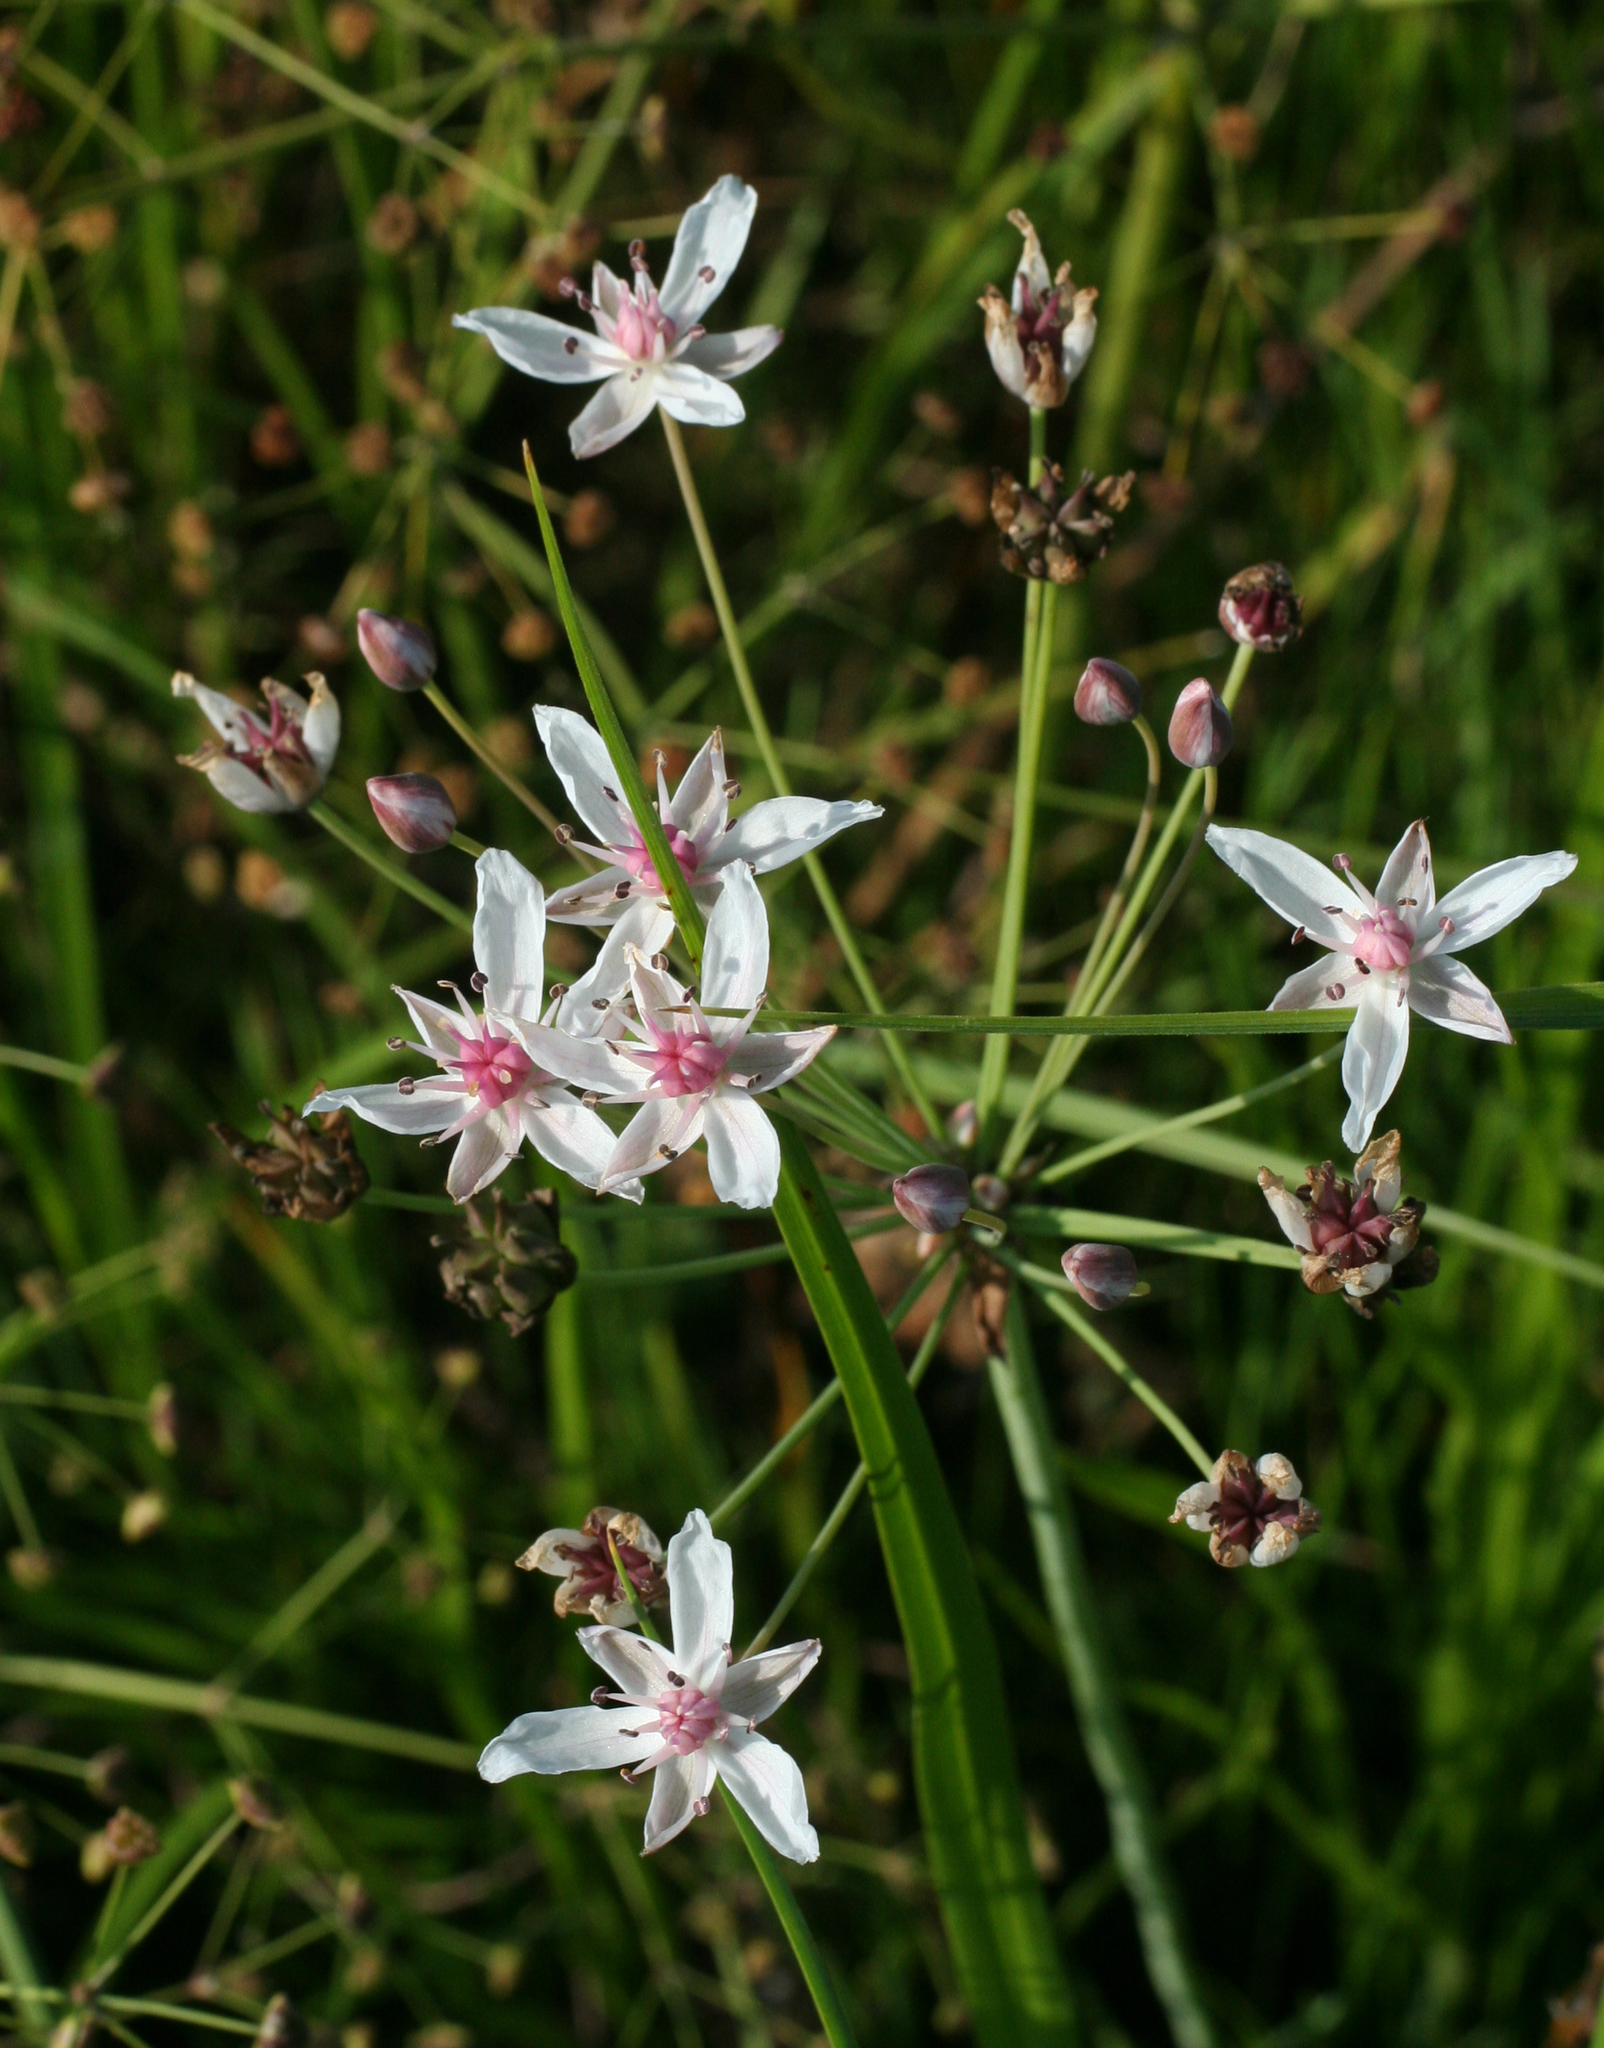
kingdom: Plantae
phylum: Tracheophyta
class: Liliopsida
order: Alismatales
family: Butomaceae
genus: Butomus
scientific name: Butomus umbellatus
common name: Flowering-rush
